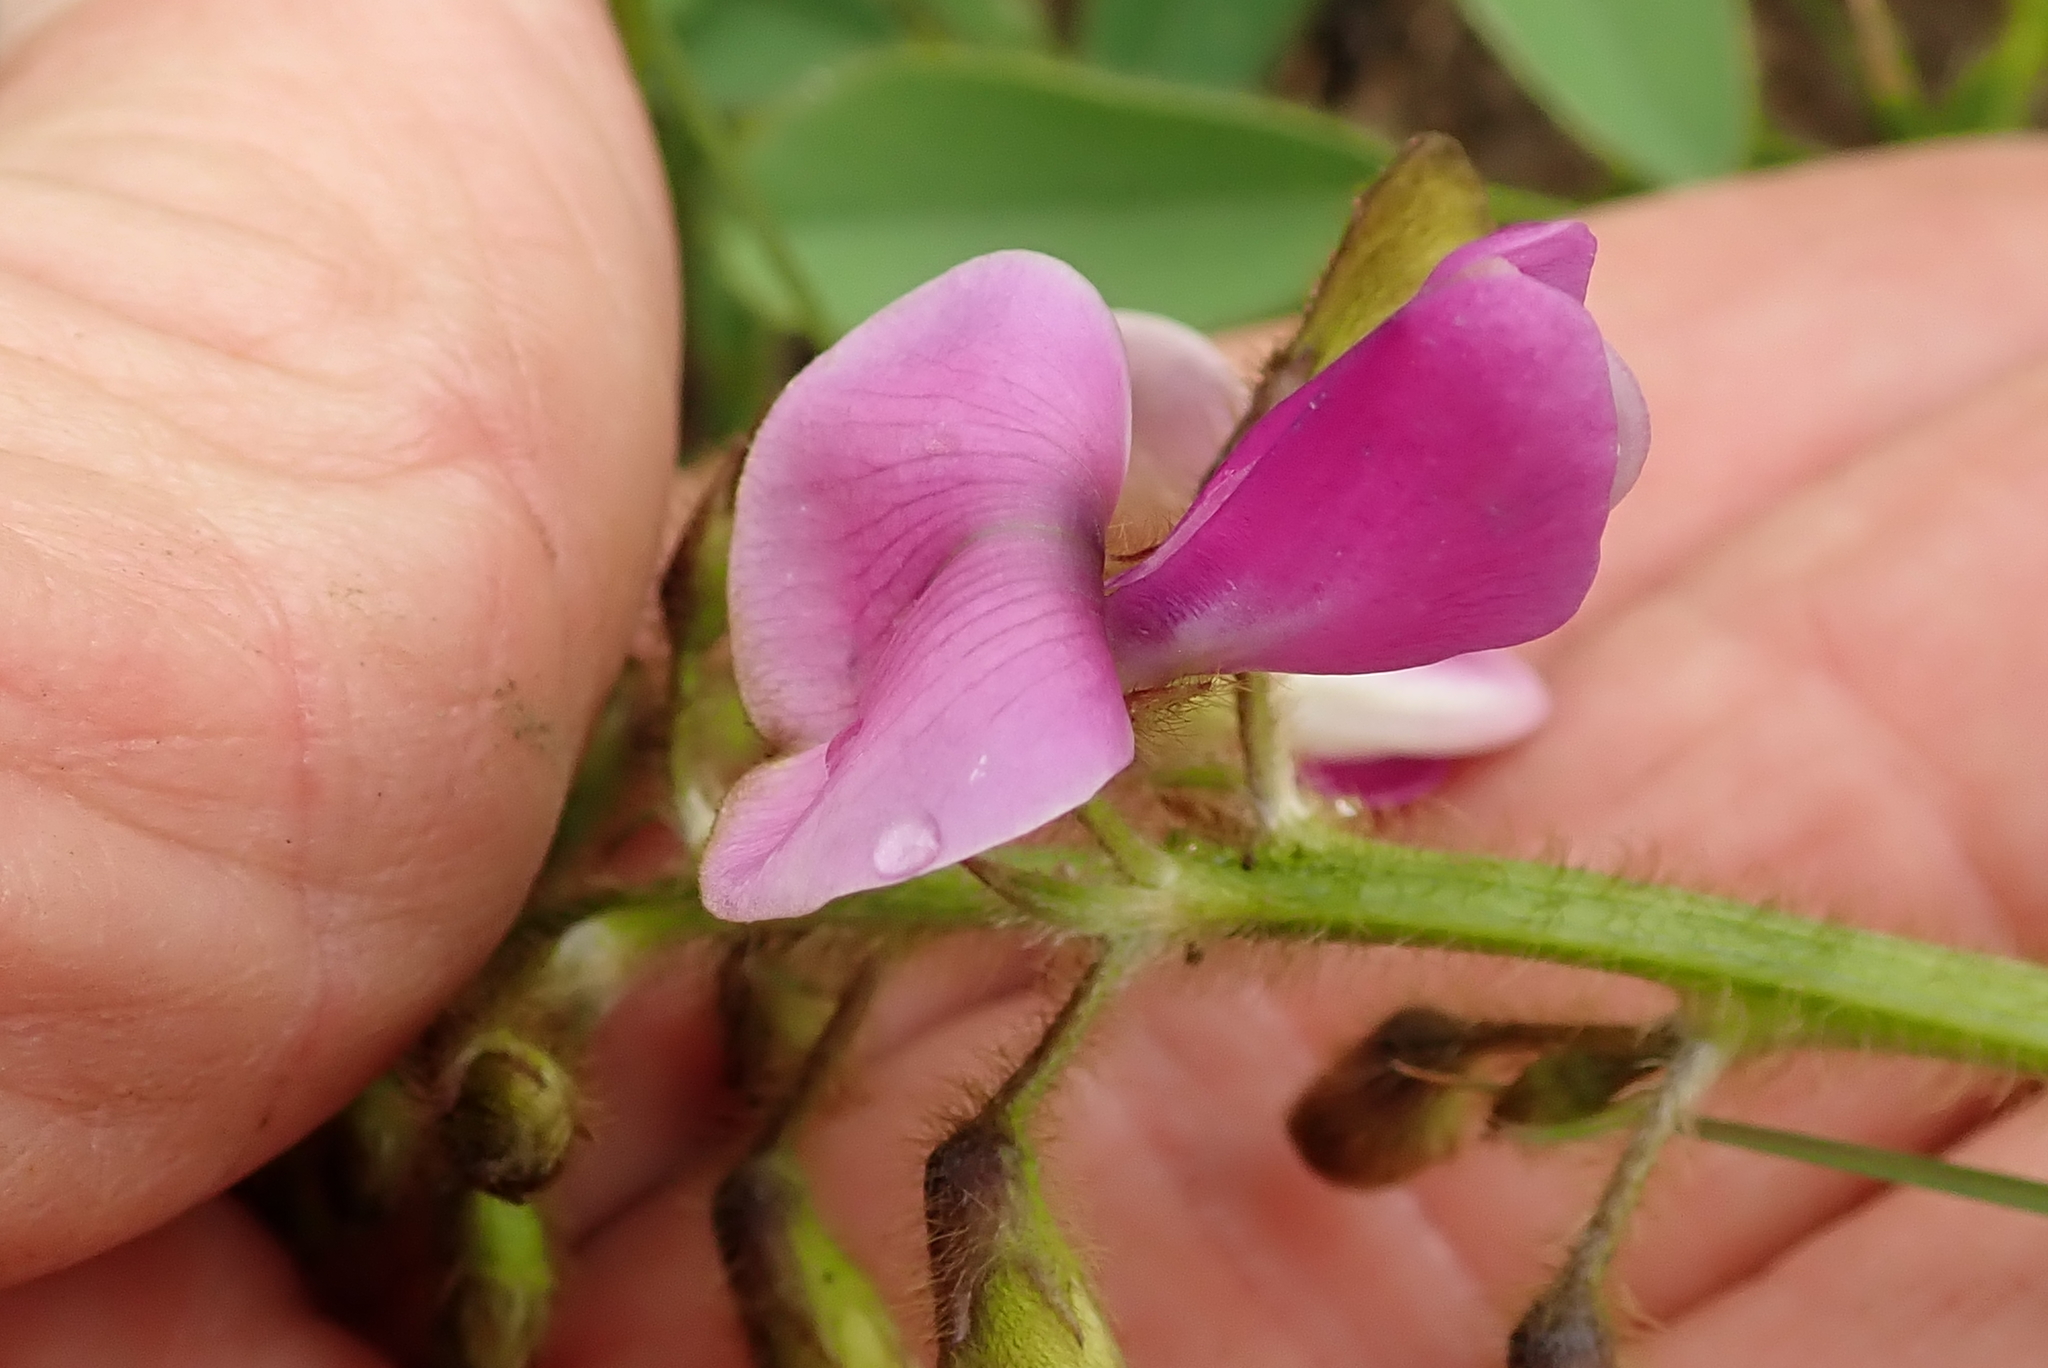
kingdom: Plantae
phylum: Tracheophyta
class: Magnoliopsida
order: Fabales
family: Fabaceae
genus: Tephrosia
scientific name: Tephrosia macropoda
